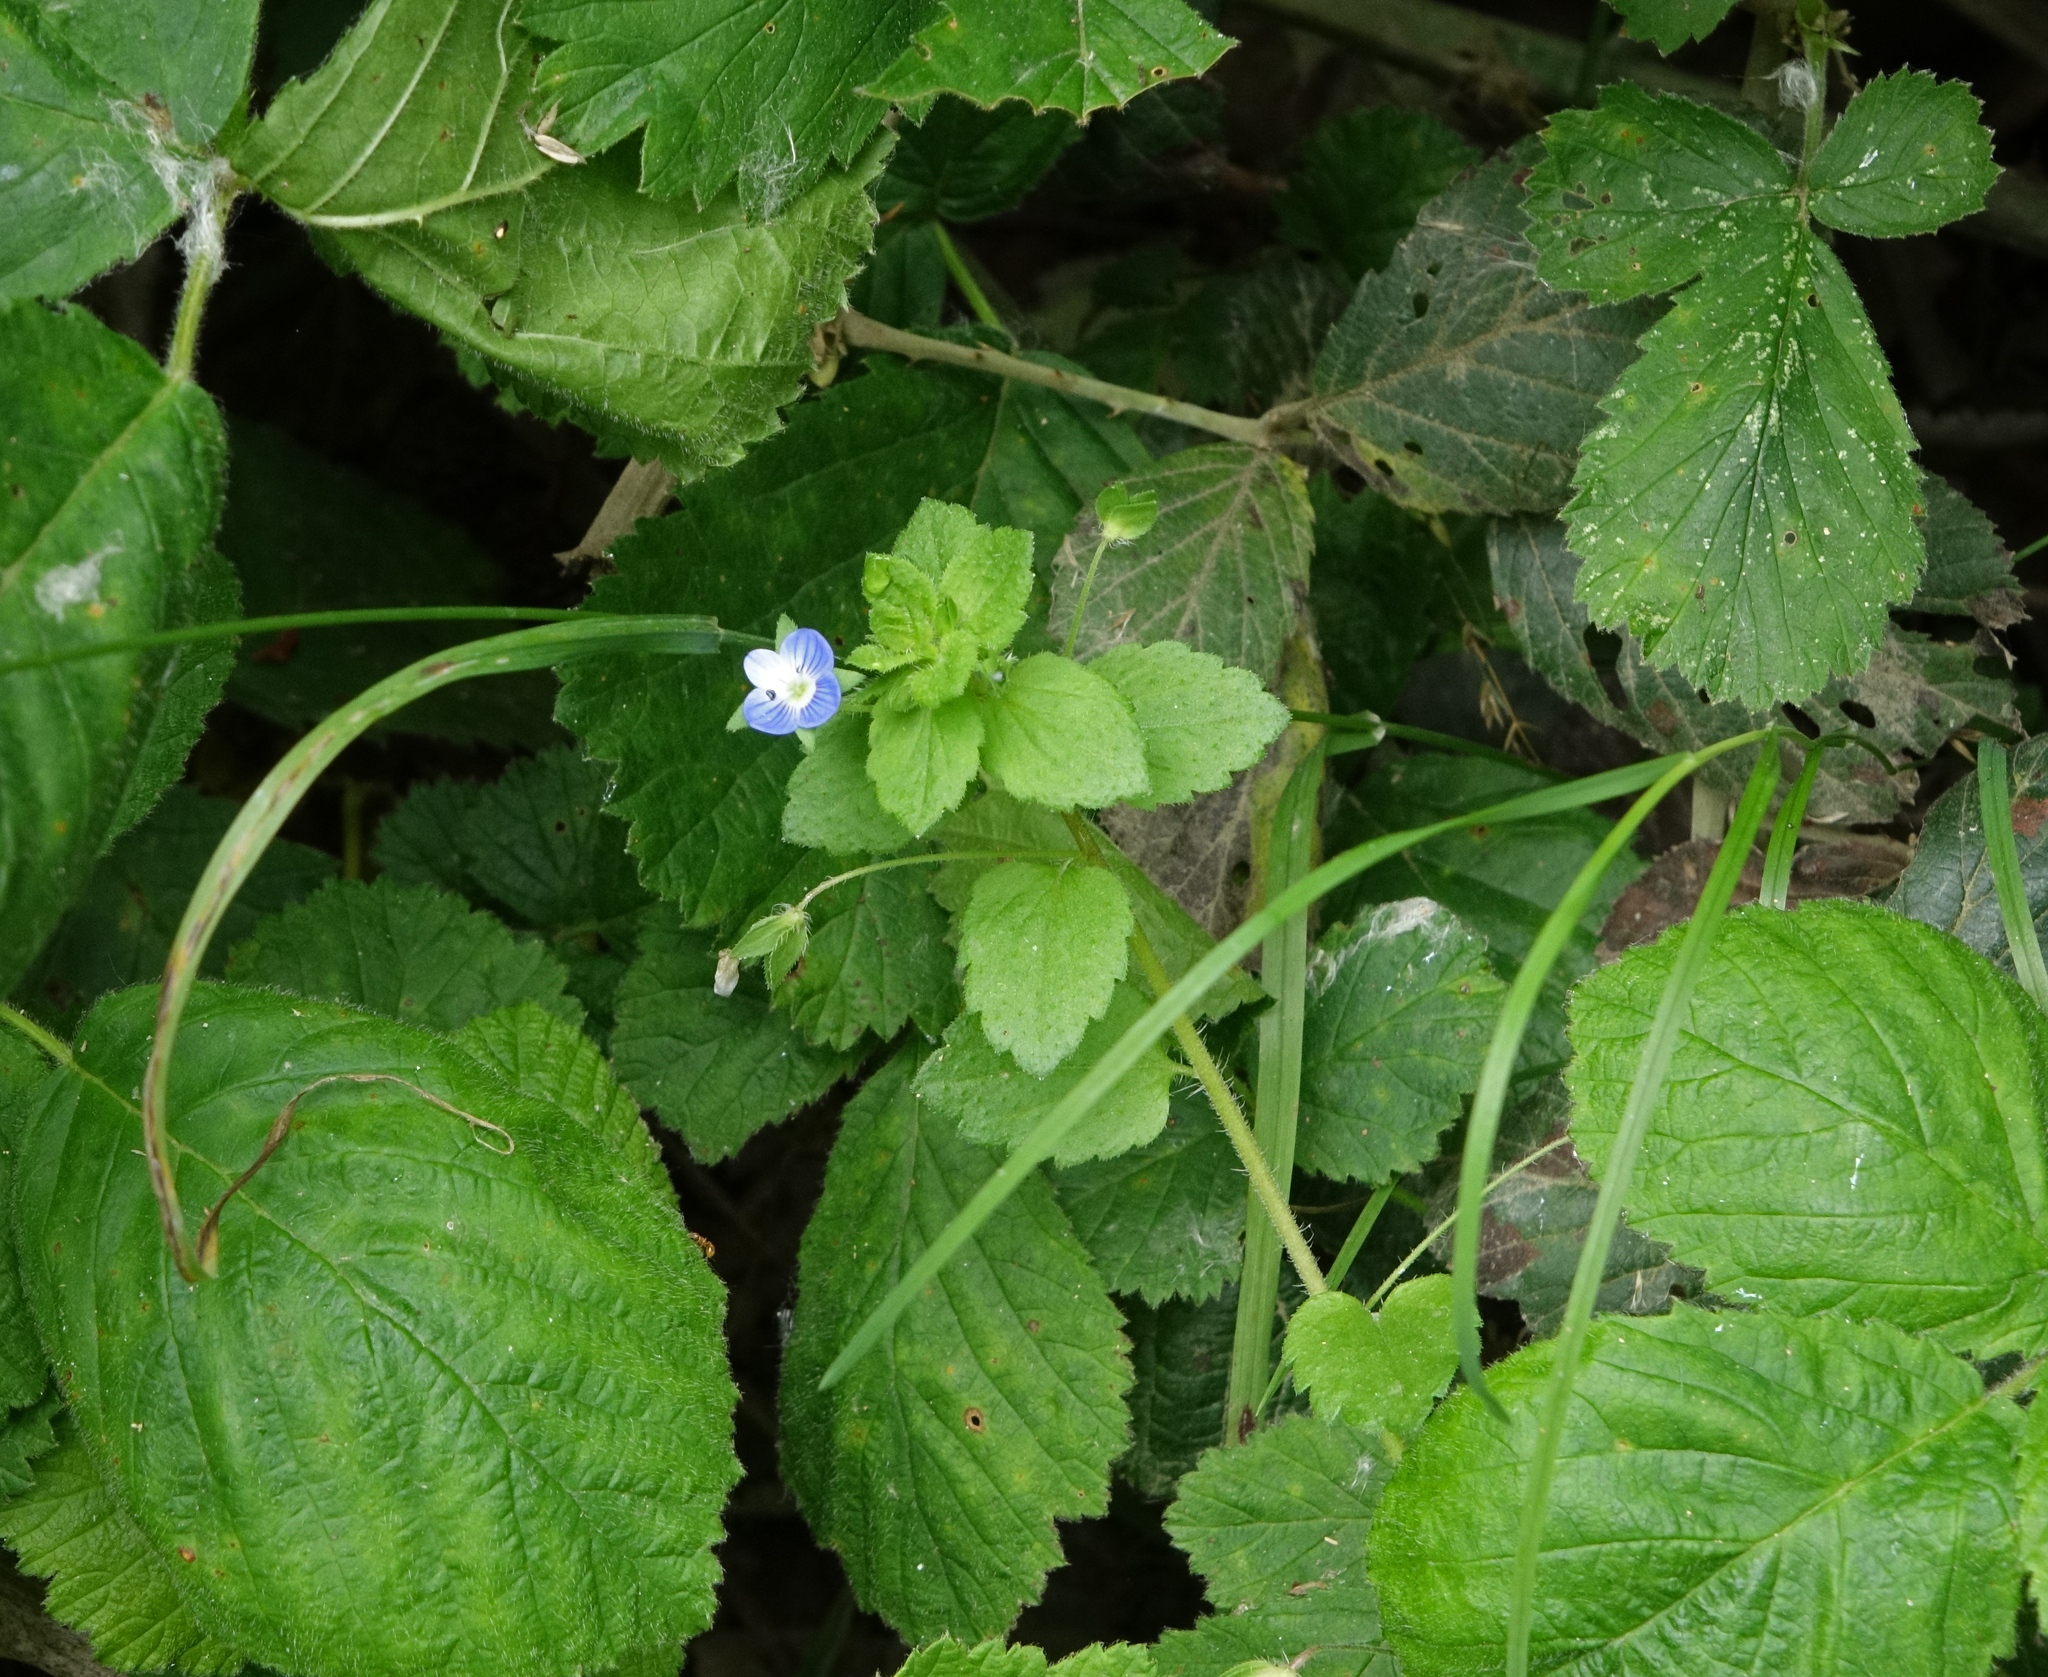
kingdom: Plantae
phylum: Tracheophyta
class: Magnoliopsida
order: Lamiales
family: Plantaginaceae
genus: Veronica
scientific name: Veronica persica
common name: Common field-speedwell
